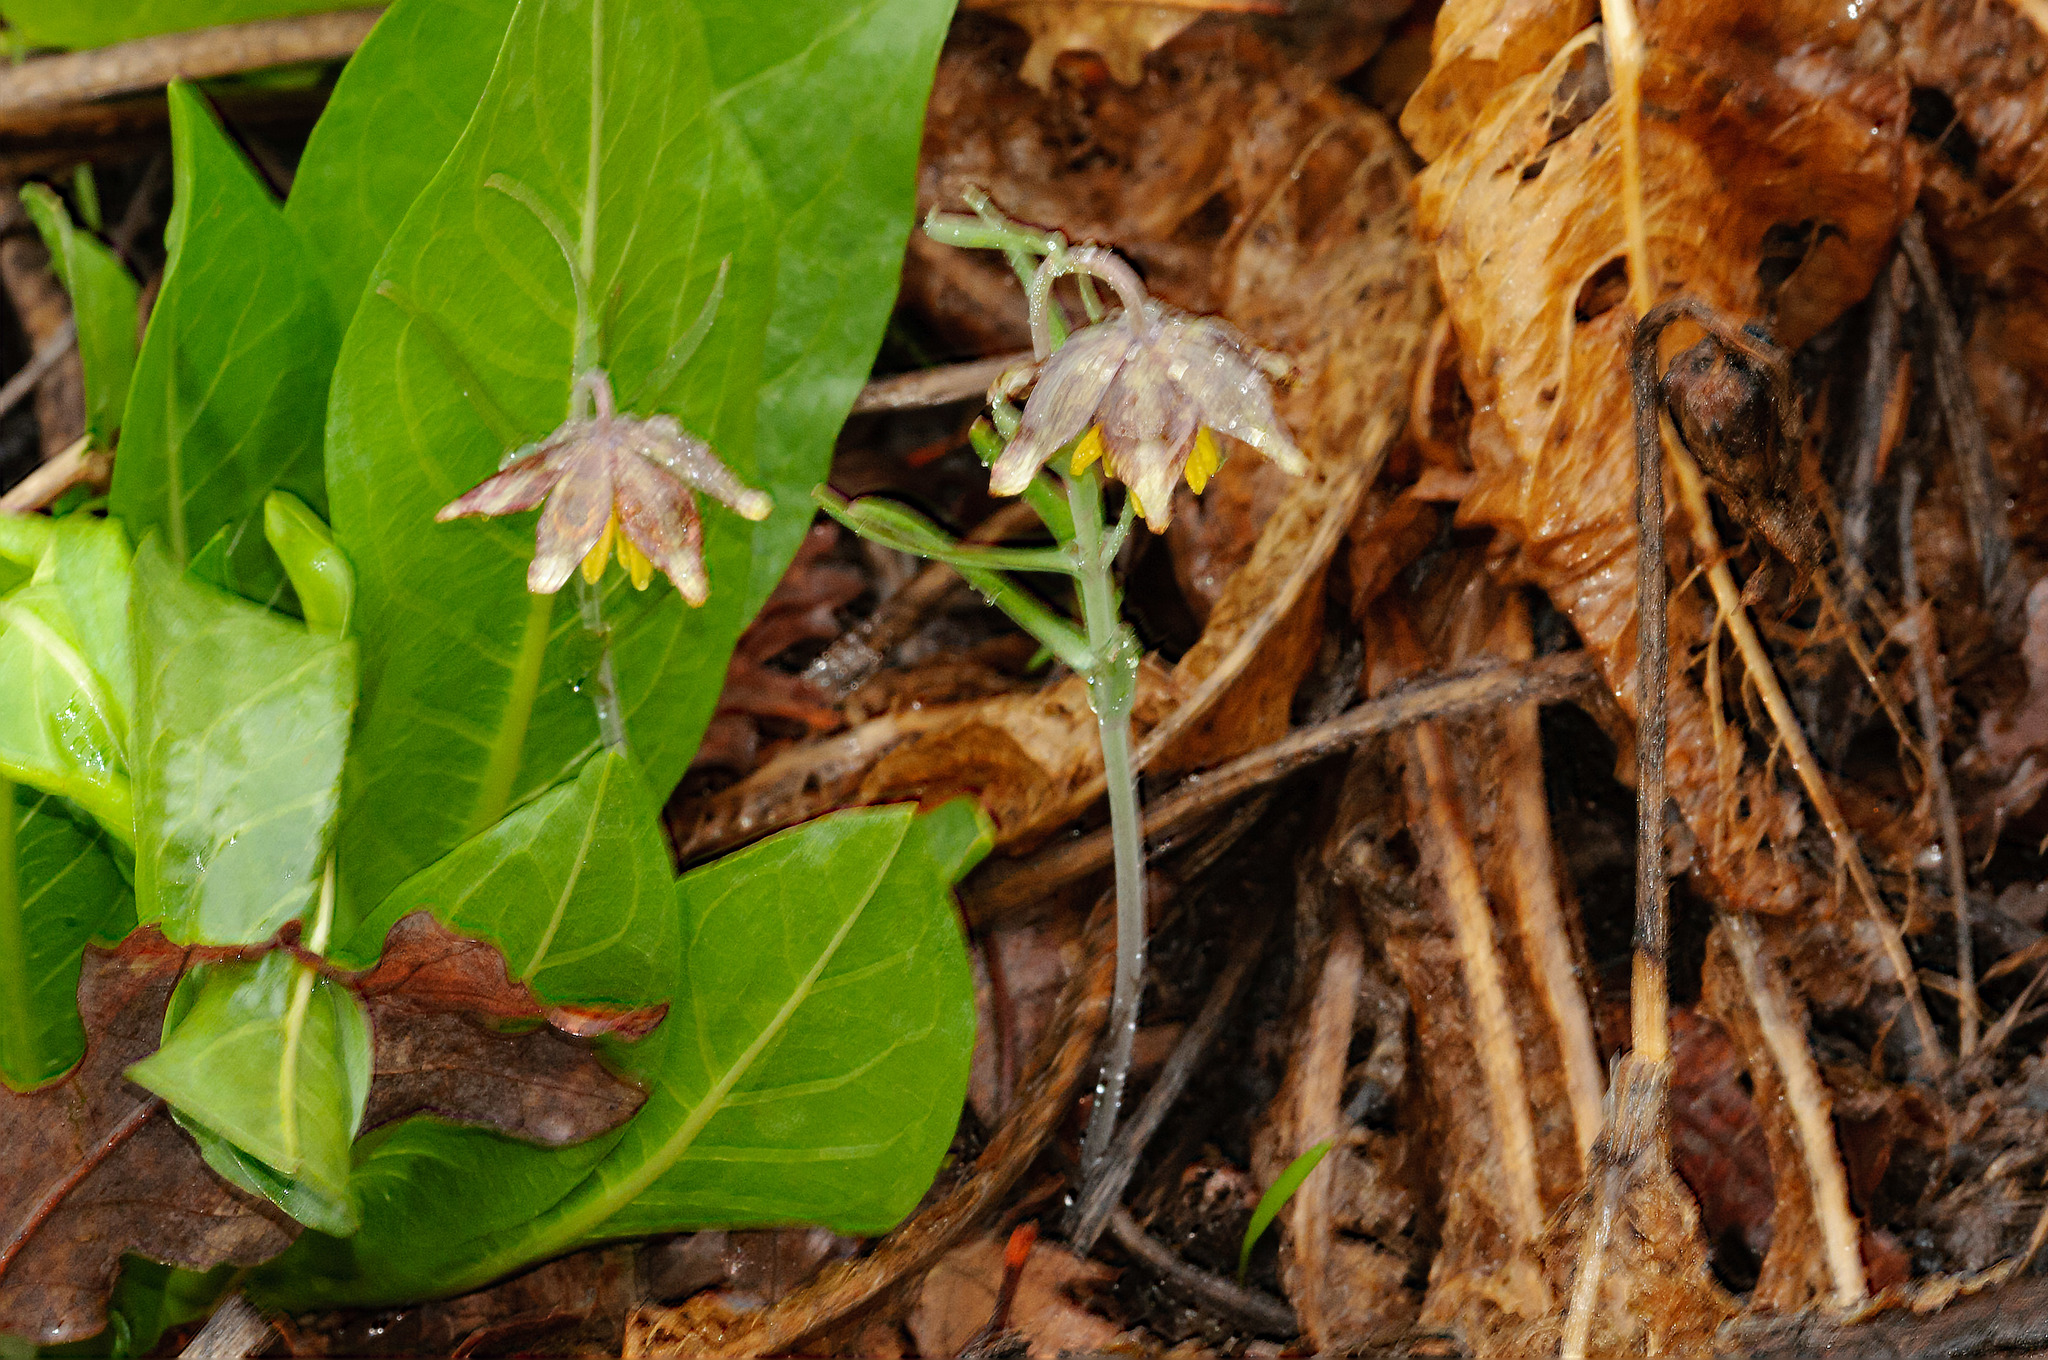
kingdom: Plantae
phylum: Tracheophyta
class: Liliopsida
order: Liliales
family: Liliaceae
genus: Fritillaria
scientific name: Fritillaria atropurpurea
